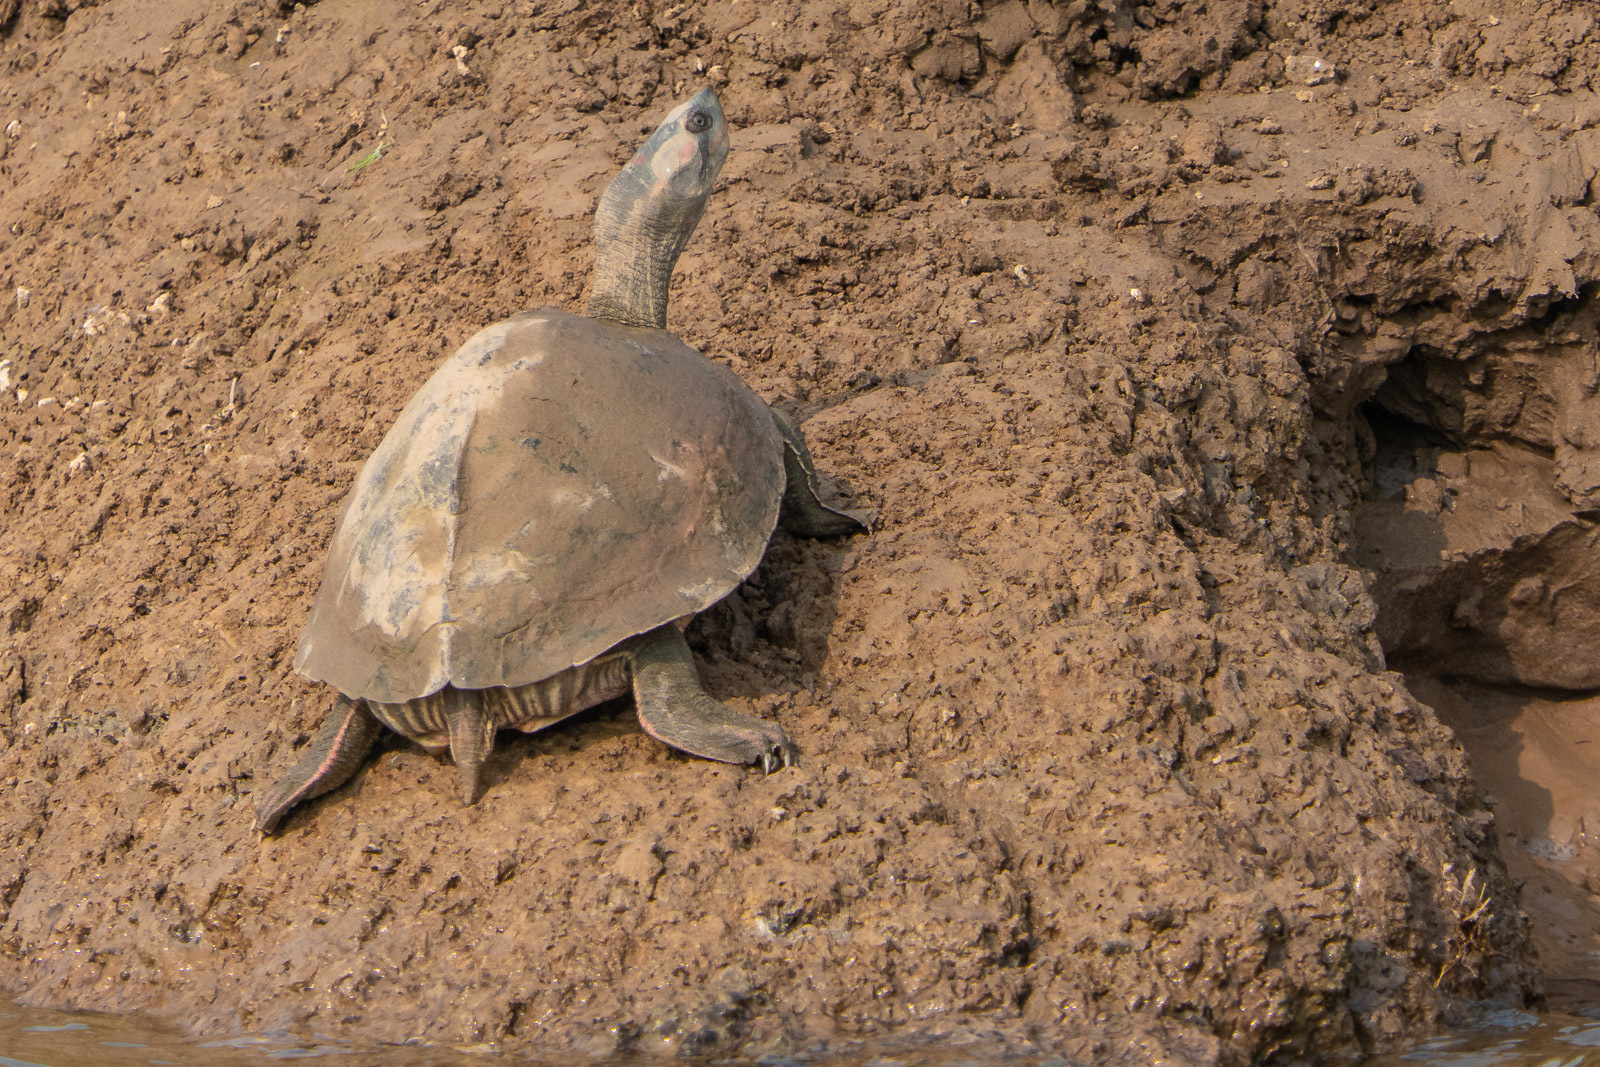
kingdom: Animalia
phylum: Chordata
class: Testudines
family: Geoemydidae
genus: Pangshura
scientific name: Pangshura tentoria
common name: Indian tent turtle
